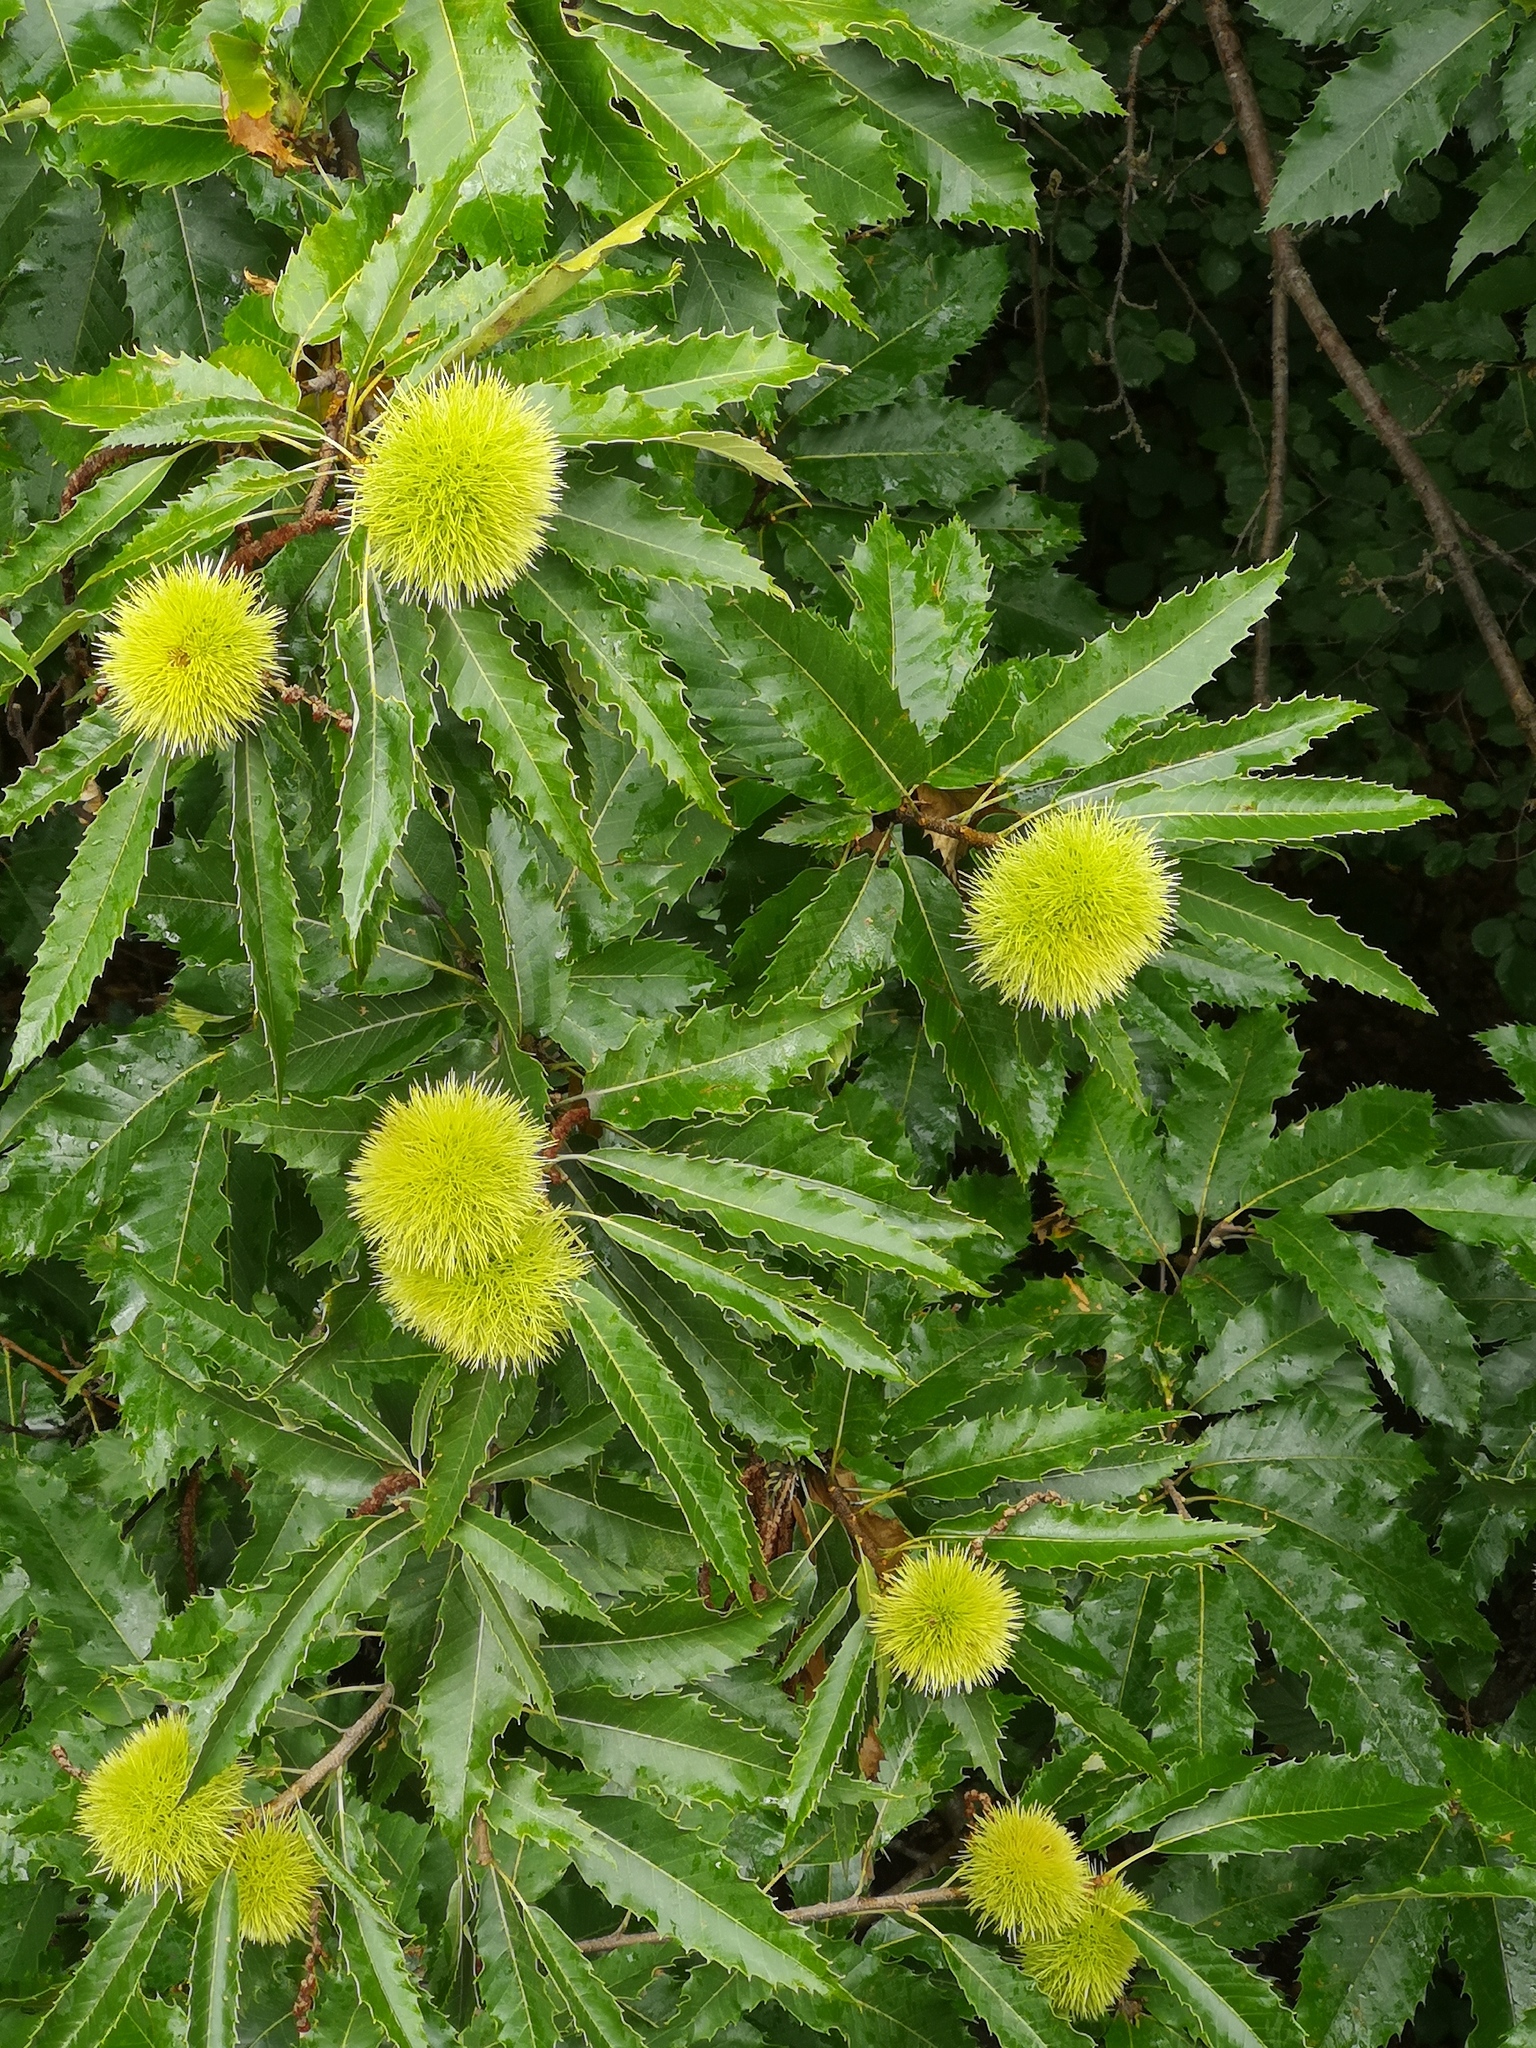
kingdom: Plantae
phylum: Tracheophyta
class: Magnoliopsida
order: Fagales
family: Fagaceae
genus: Castanea
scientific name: Castanea sativa
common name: Sweet chestnut
